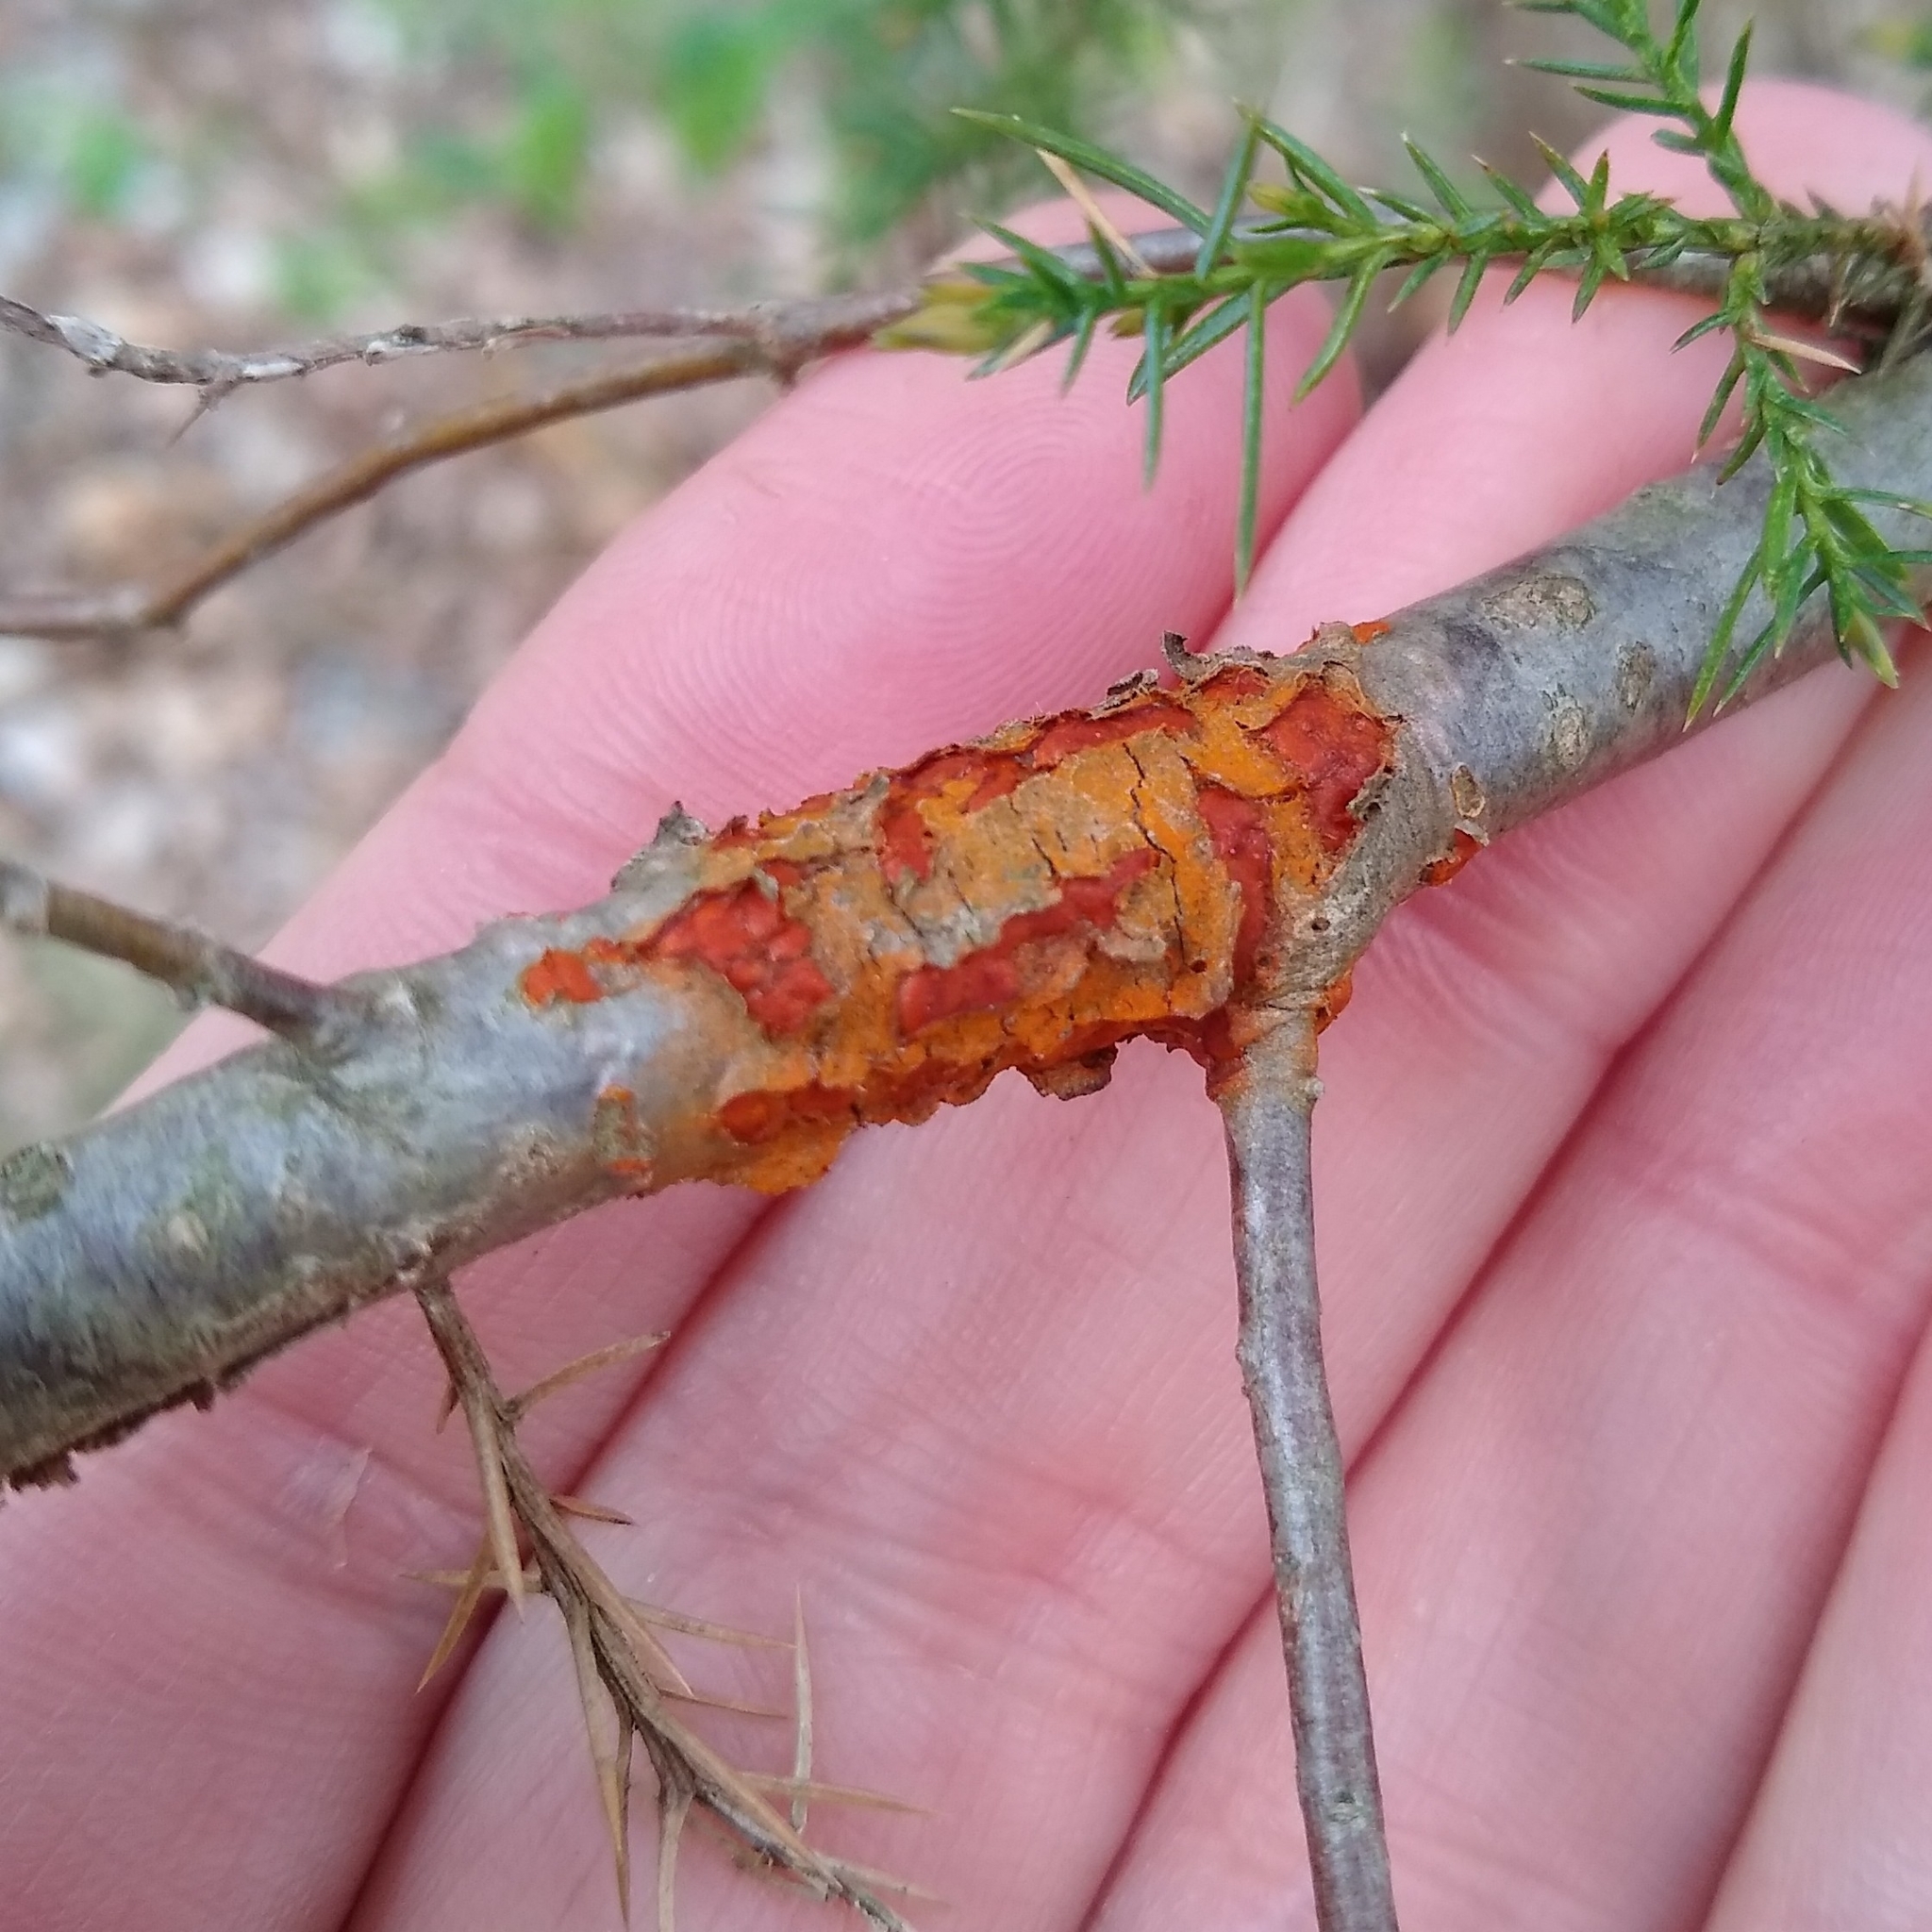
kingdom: Fungi
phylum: Basidiomycota
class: Pucciniomycetes
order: Pucciniales
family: Gymnosporangiaceae
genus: Gymnosporangium
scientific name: Gymnosporangium clavipes
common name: Quince rust
